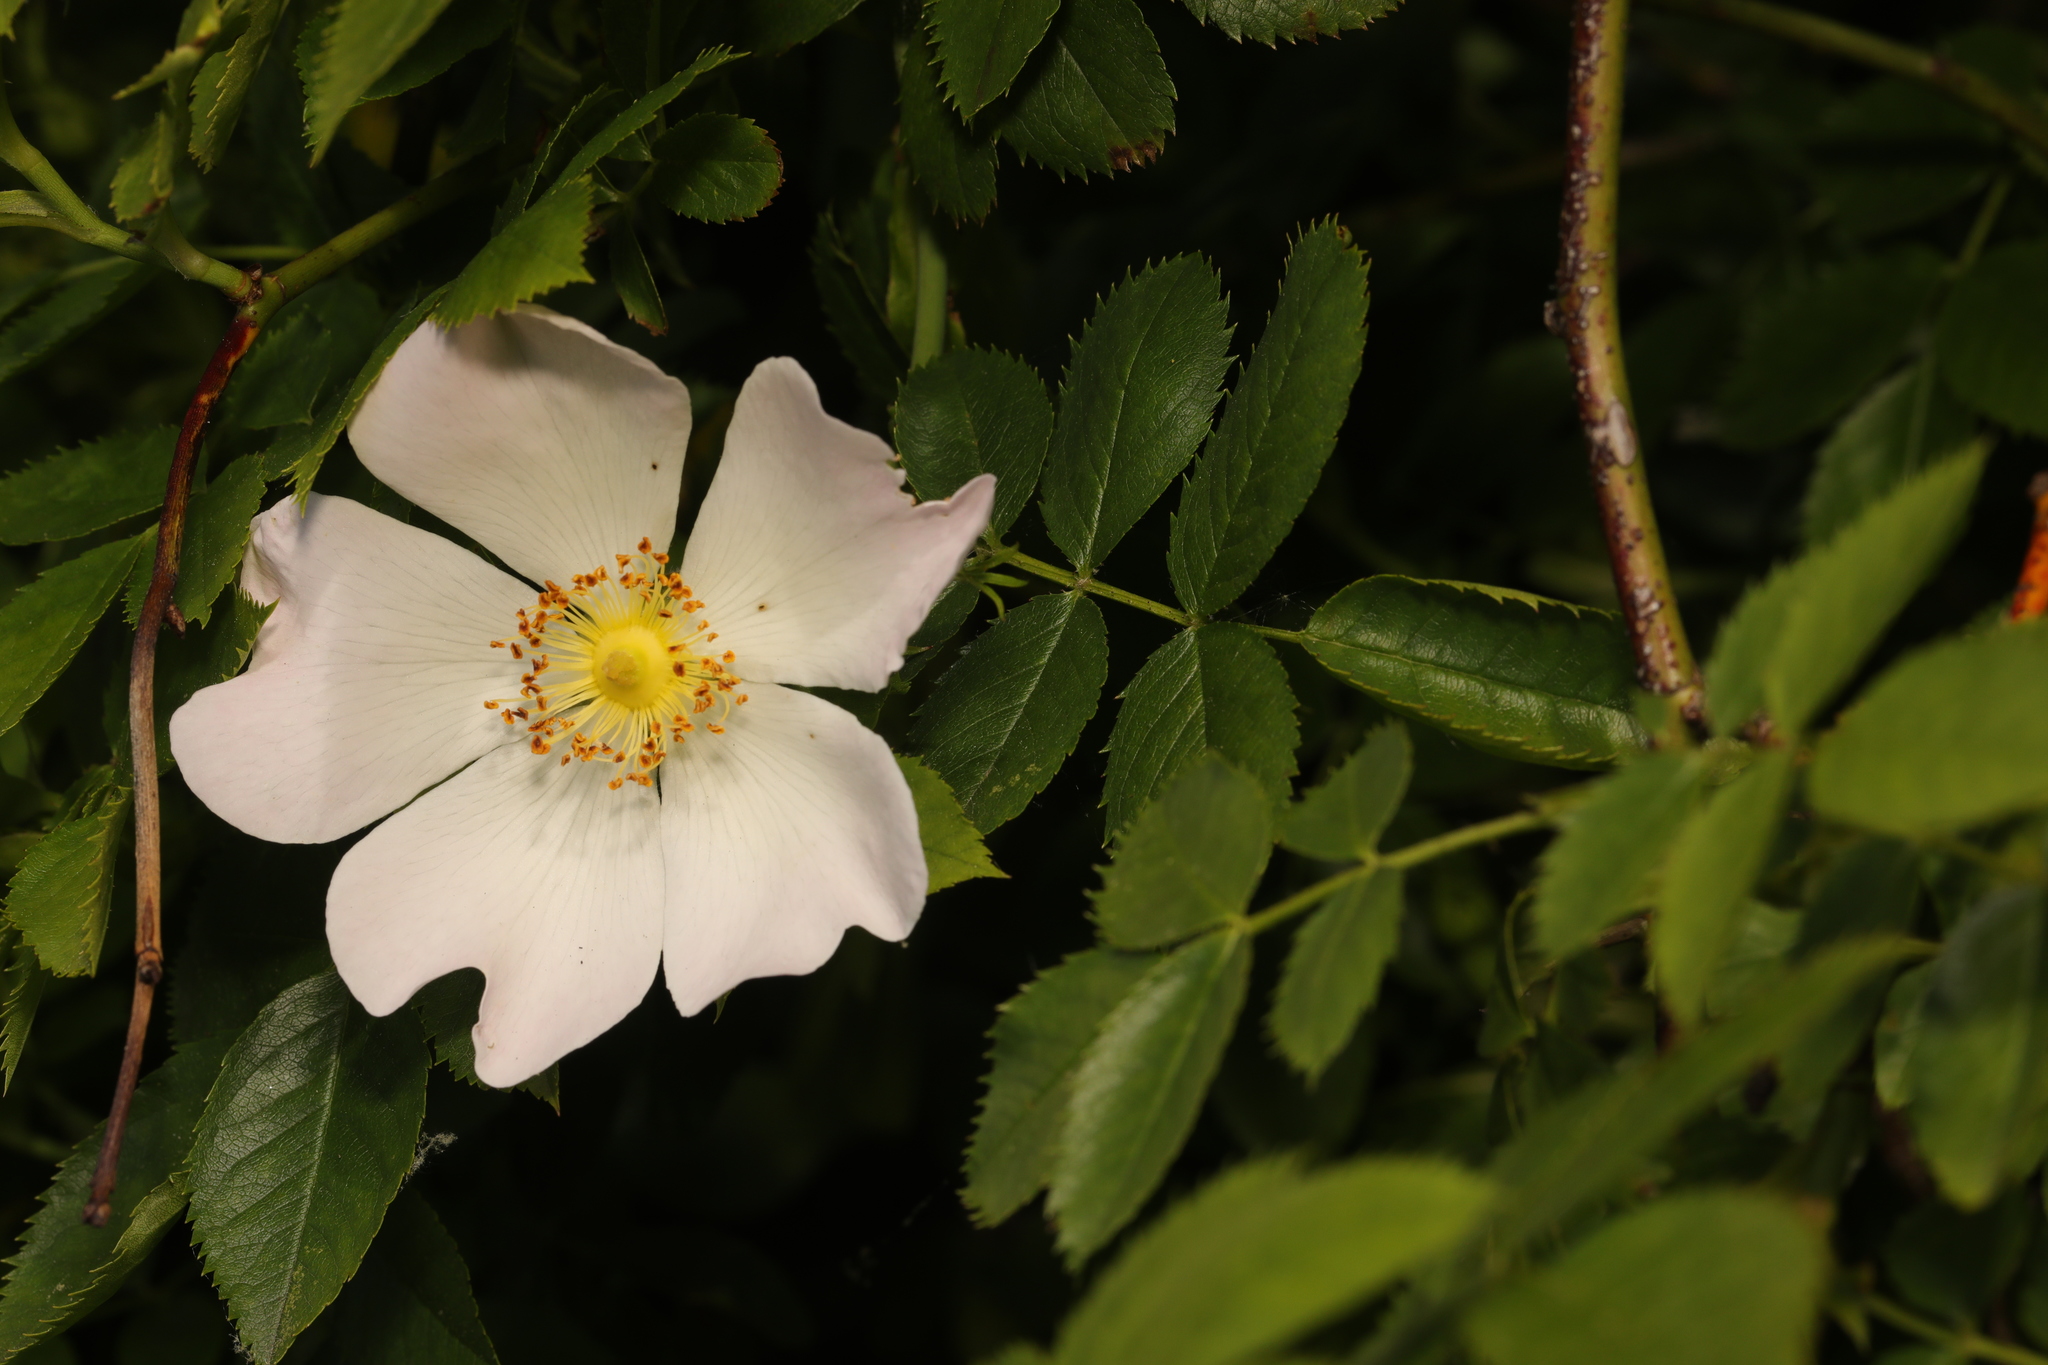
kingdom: Plantae
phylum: Tracheophyta
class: Magnoliopsida
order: Rosales
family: Rosaceae
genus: Rosa
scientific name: Rosa canina
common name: Dog rose
